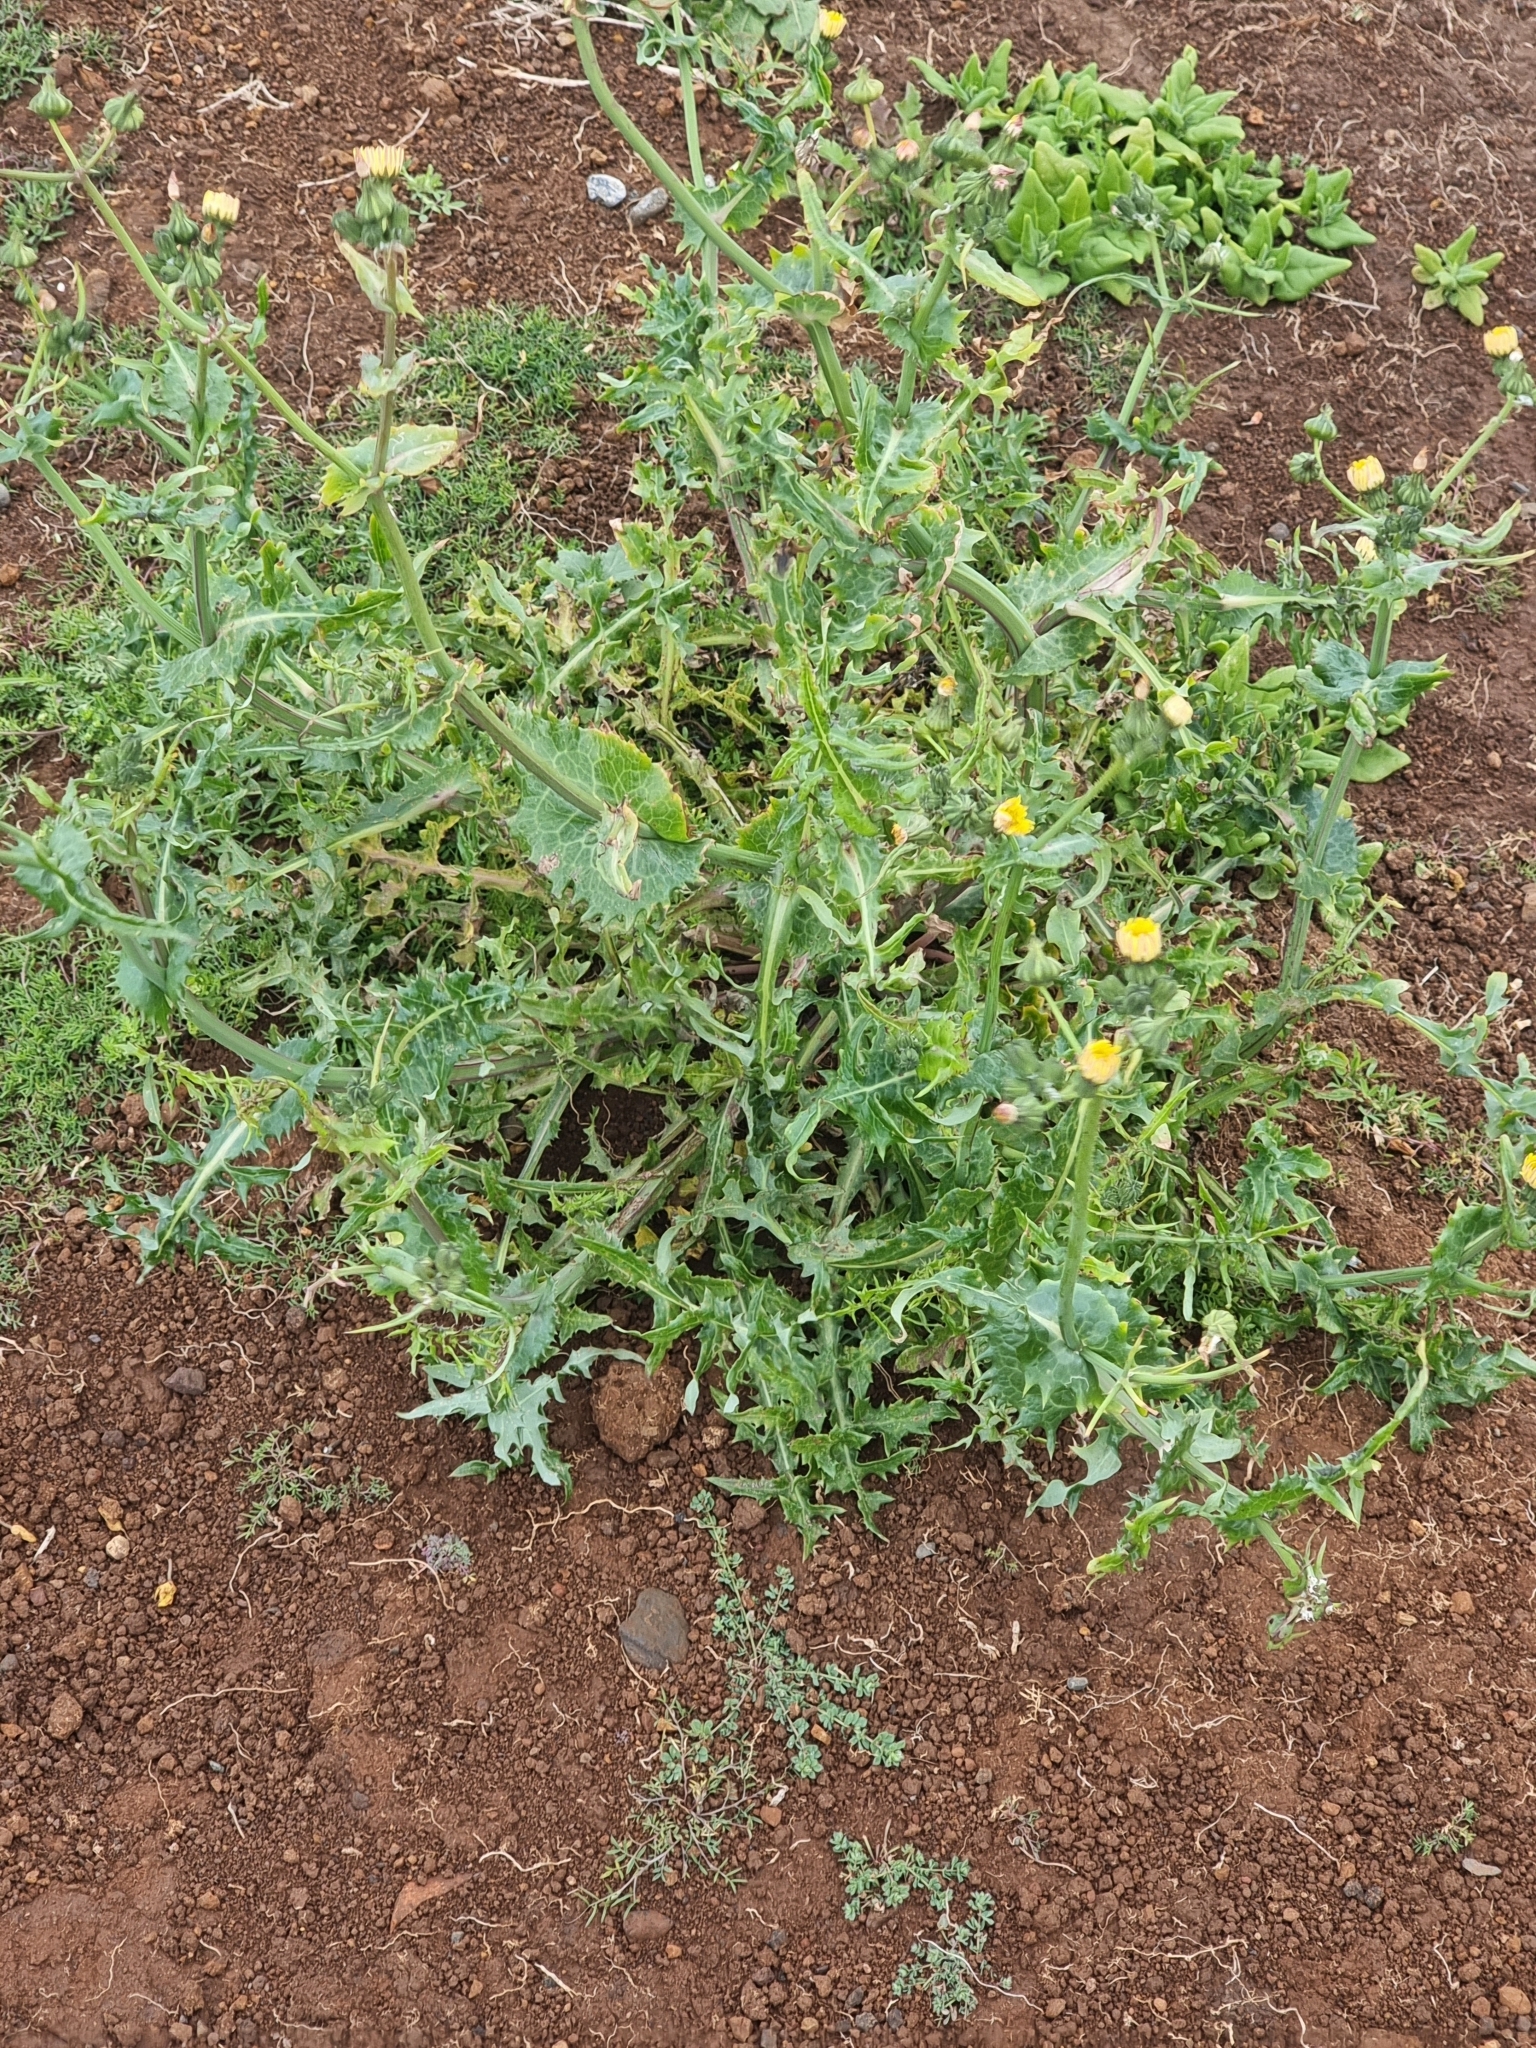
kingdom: Plantae
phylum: Tracheophyta
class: Magnoliopsida
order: Asterales
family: Asteraceae
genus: Sonchus
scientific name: Sonchus asper
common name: Prickly sow-thistle
